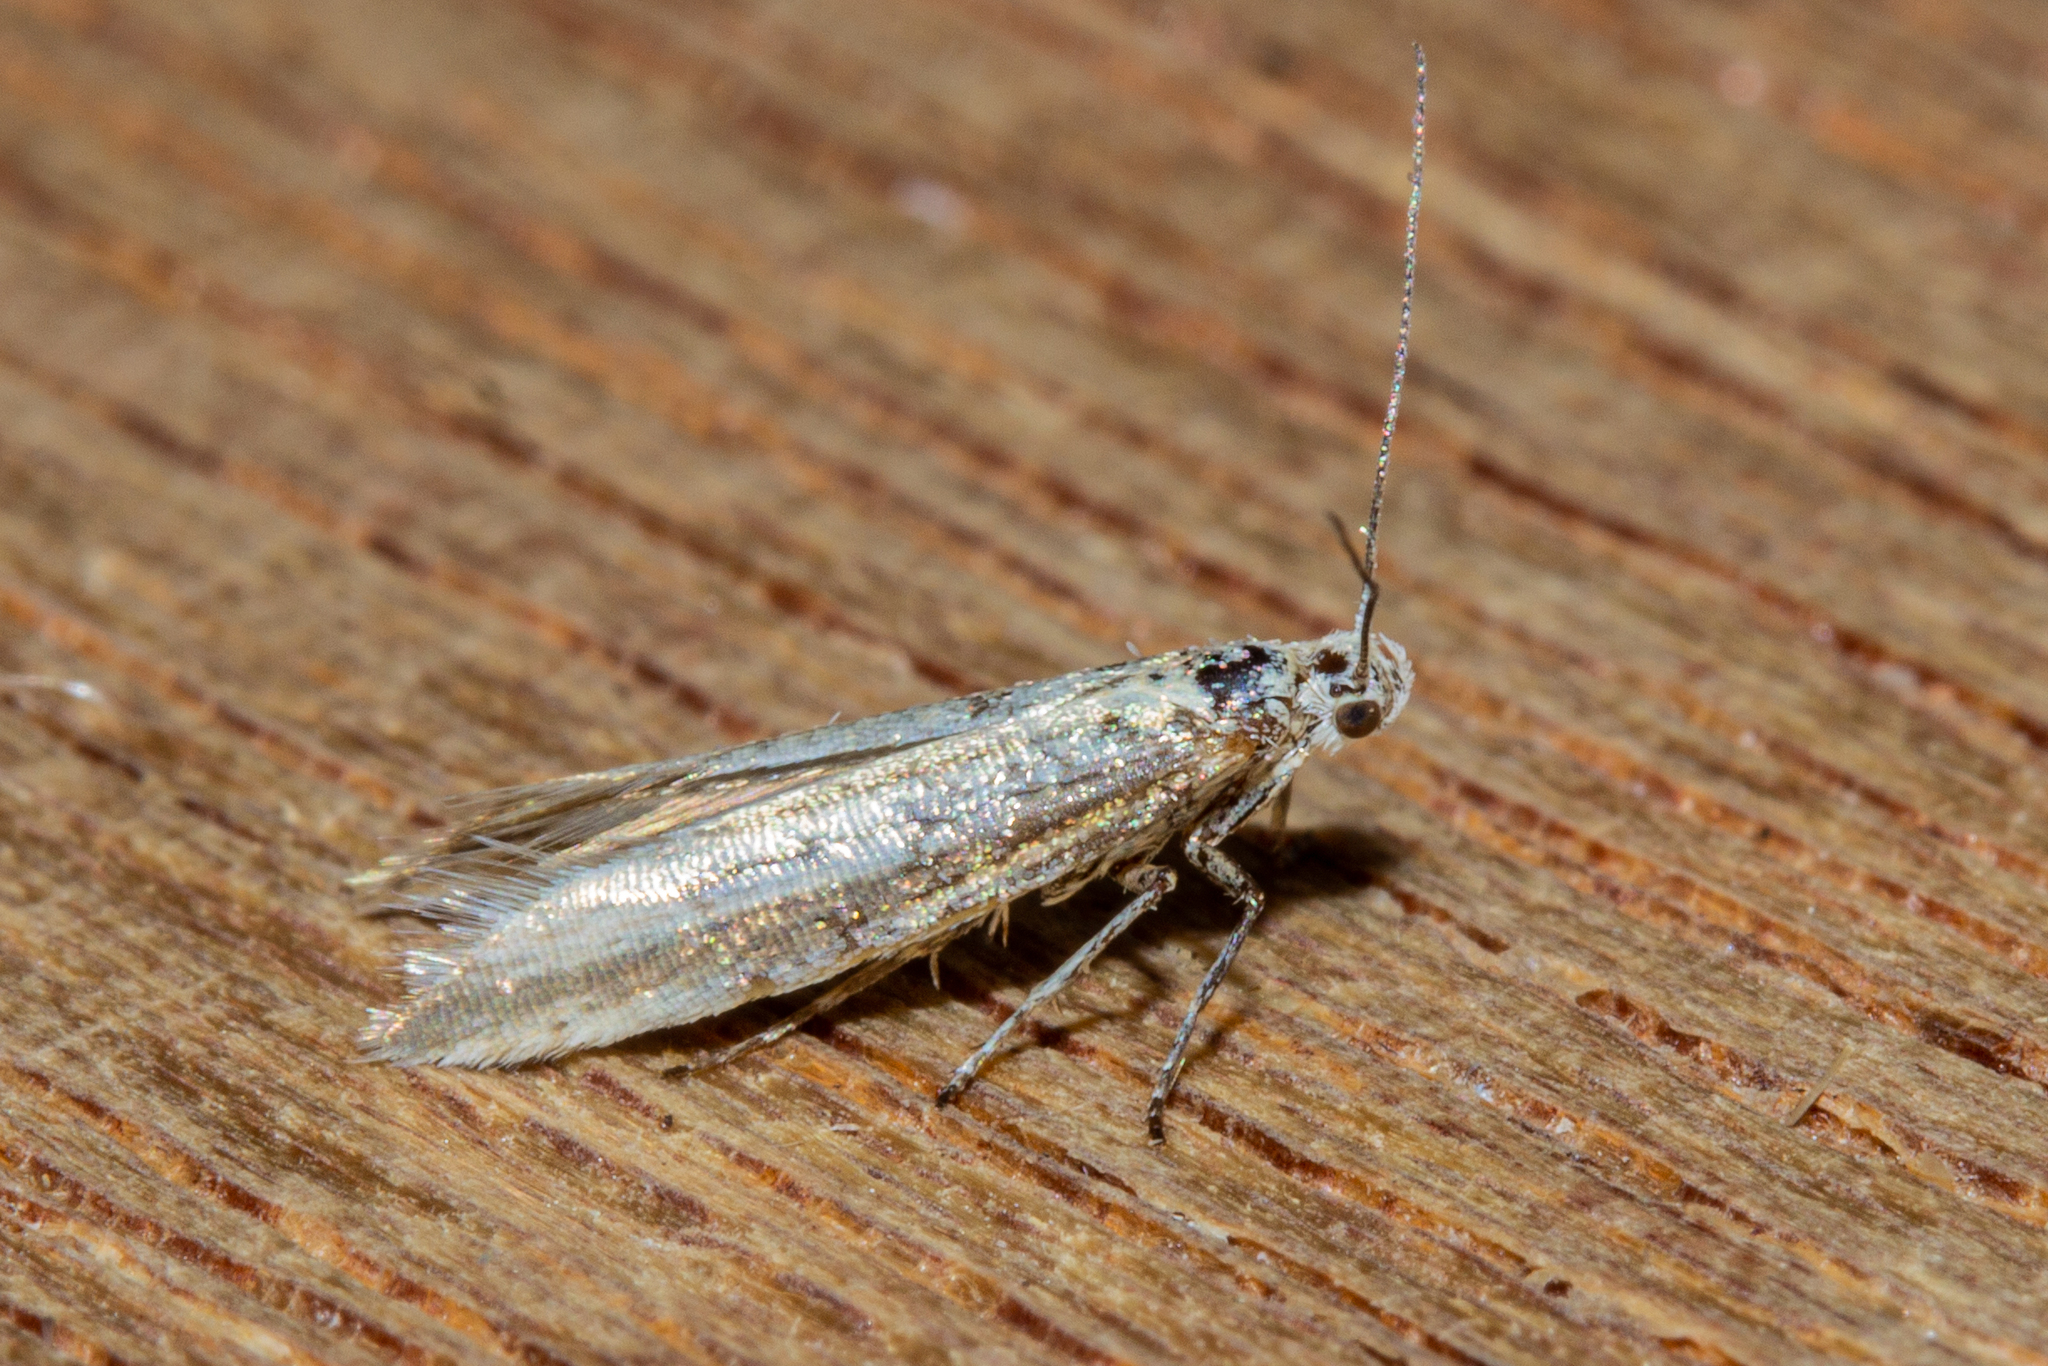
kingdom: Animalia
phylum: Arthropoda
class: Insecta
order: Lepidoptera
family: Glyphipterigidae
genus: Glyphipterix
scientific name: Glyphipterix cionophora
